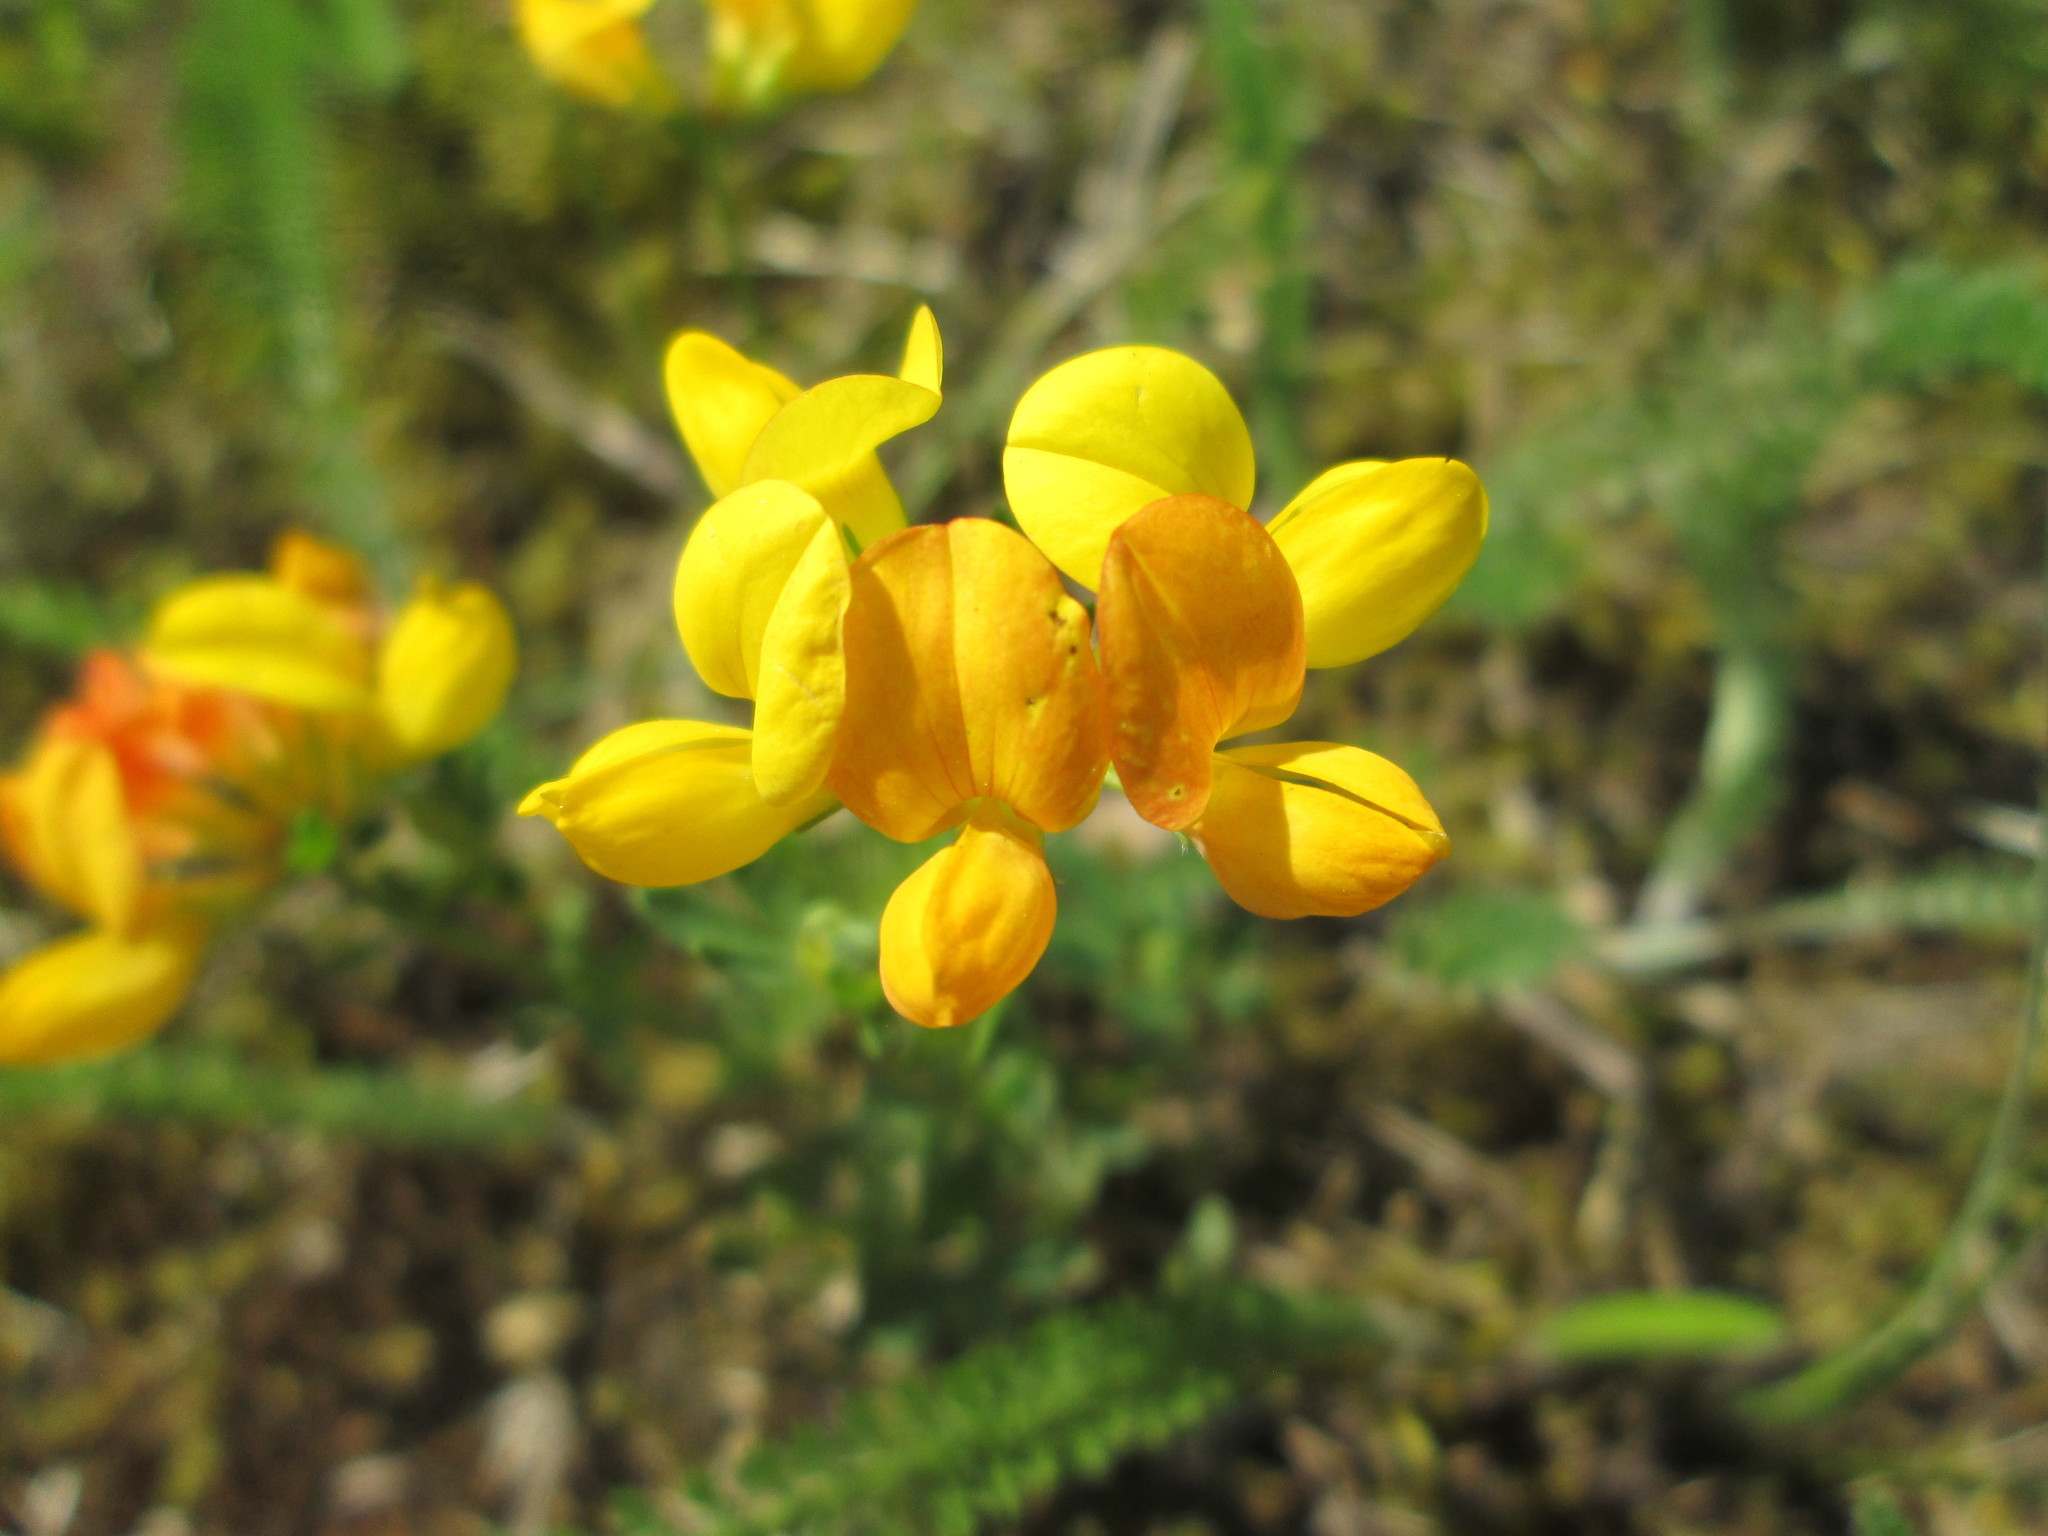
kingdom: Plantae
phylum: Tracheophyta
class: Magnoliopsida
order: Fabales
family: Fabaceae
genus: Lotus
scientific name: Lotus corniculatus
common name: Common bird's-foot-trefoil
